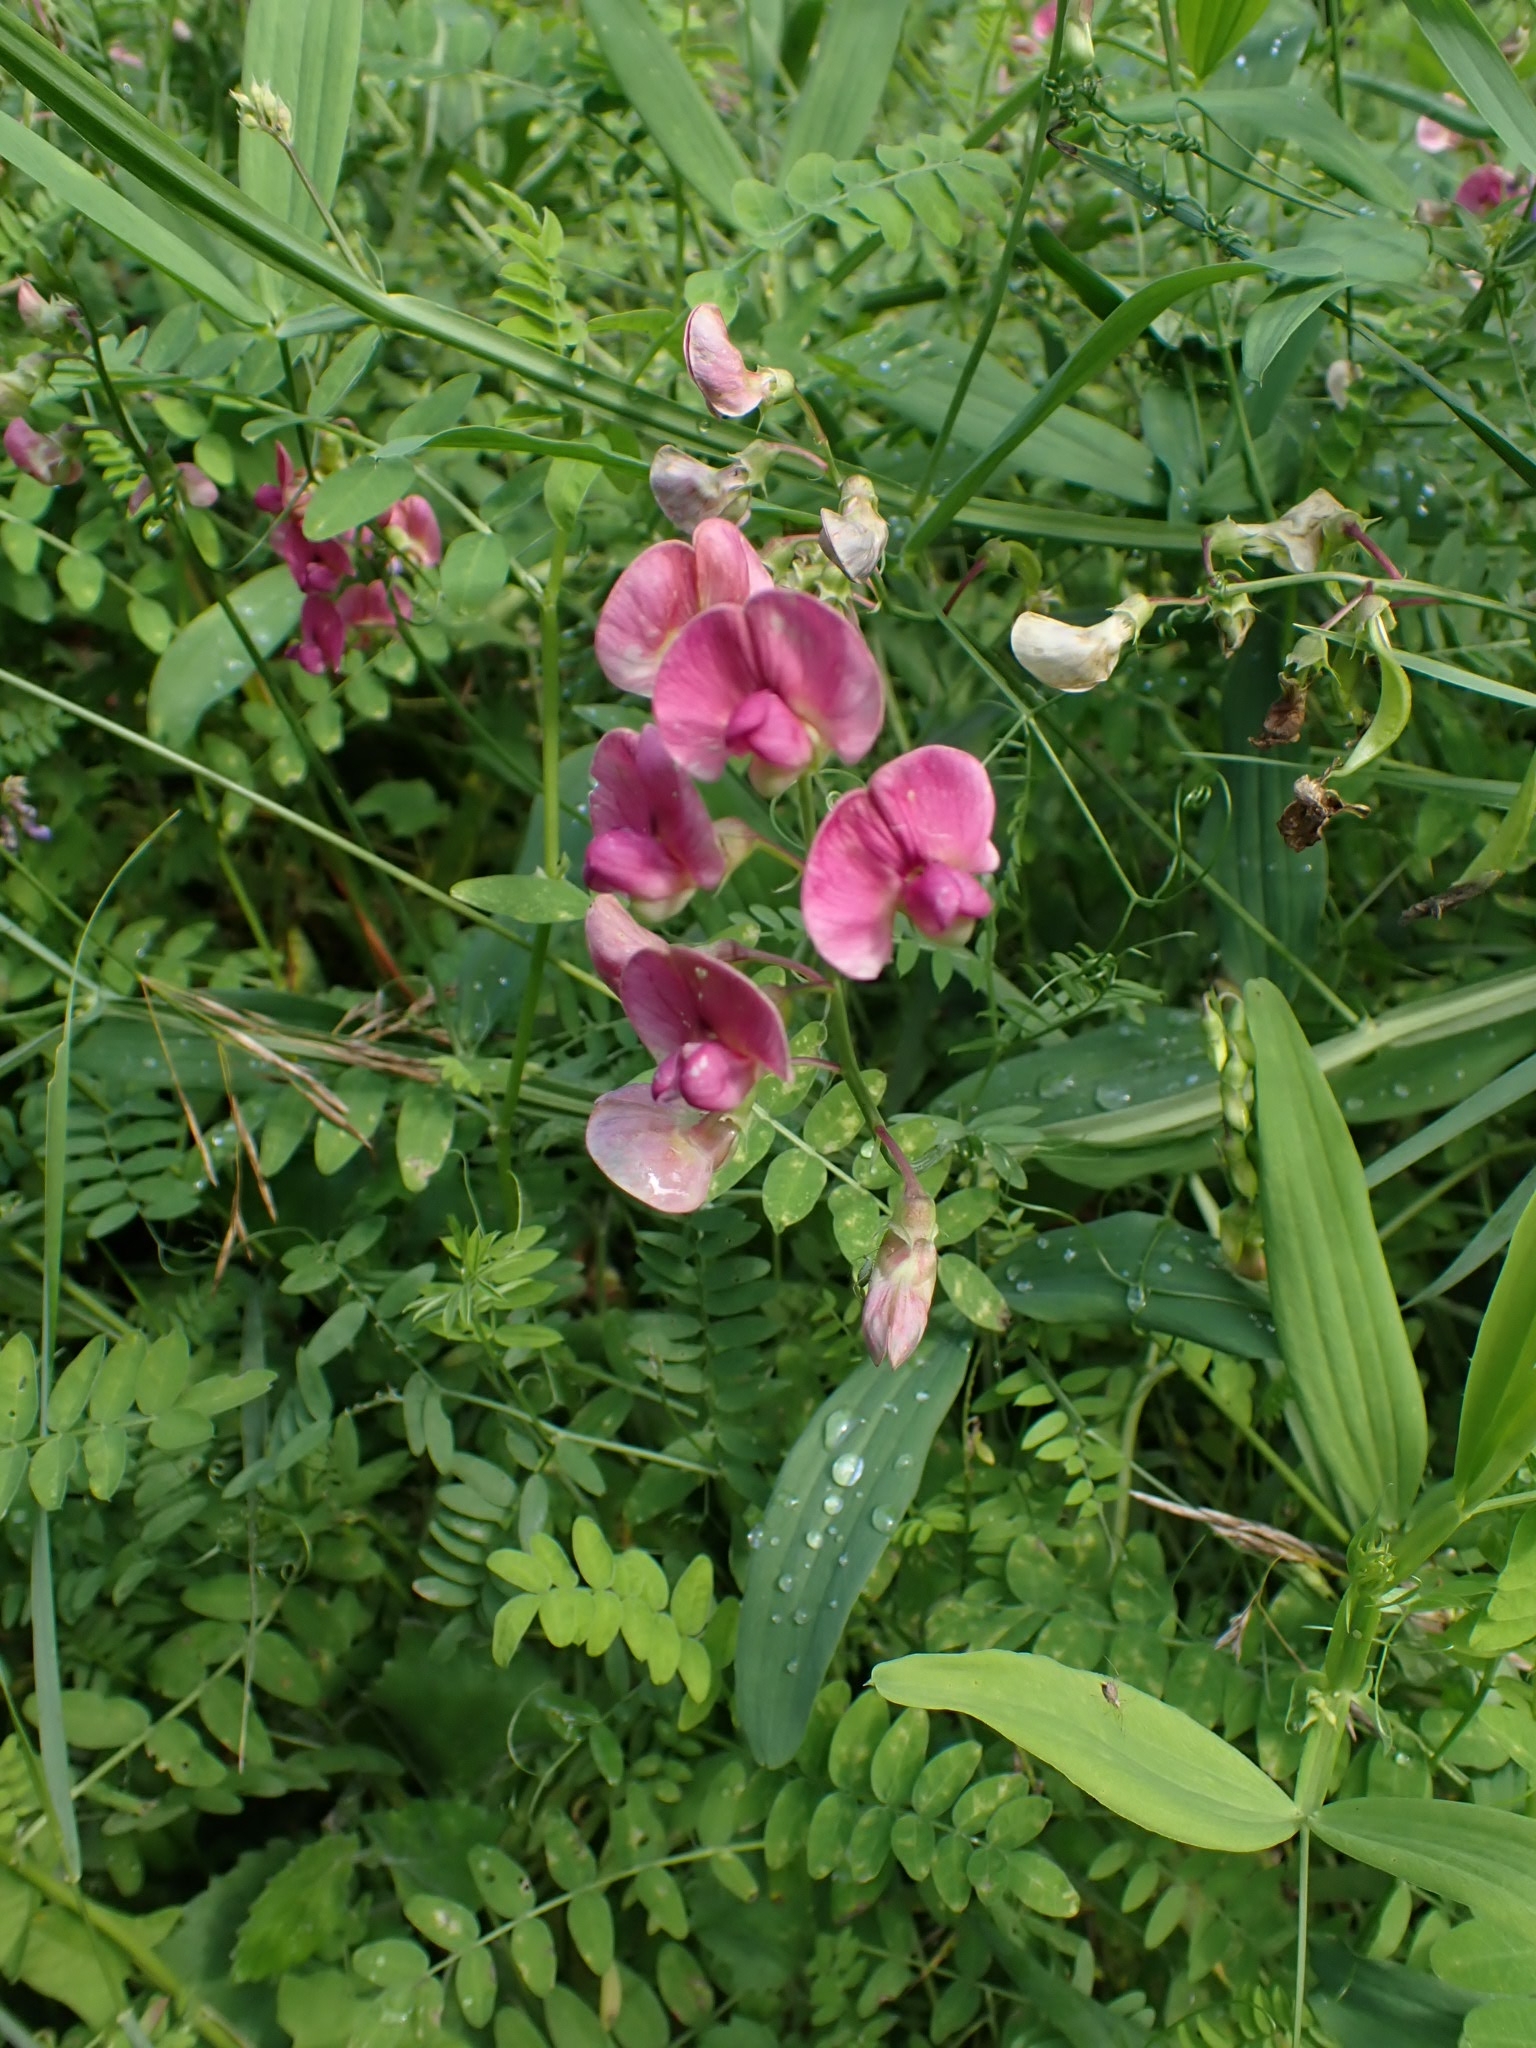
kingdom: Plantae
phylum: Tracheophyta
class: Magnoliopsida
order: Fabales
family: Fabaceae
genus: Lathyrus
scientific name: Lathyrus sylvestris
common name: Flat pea
